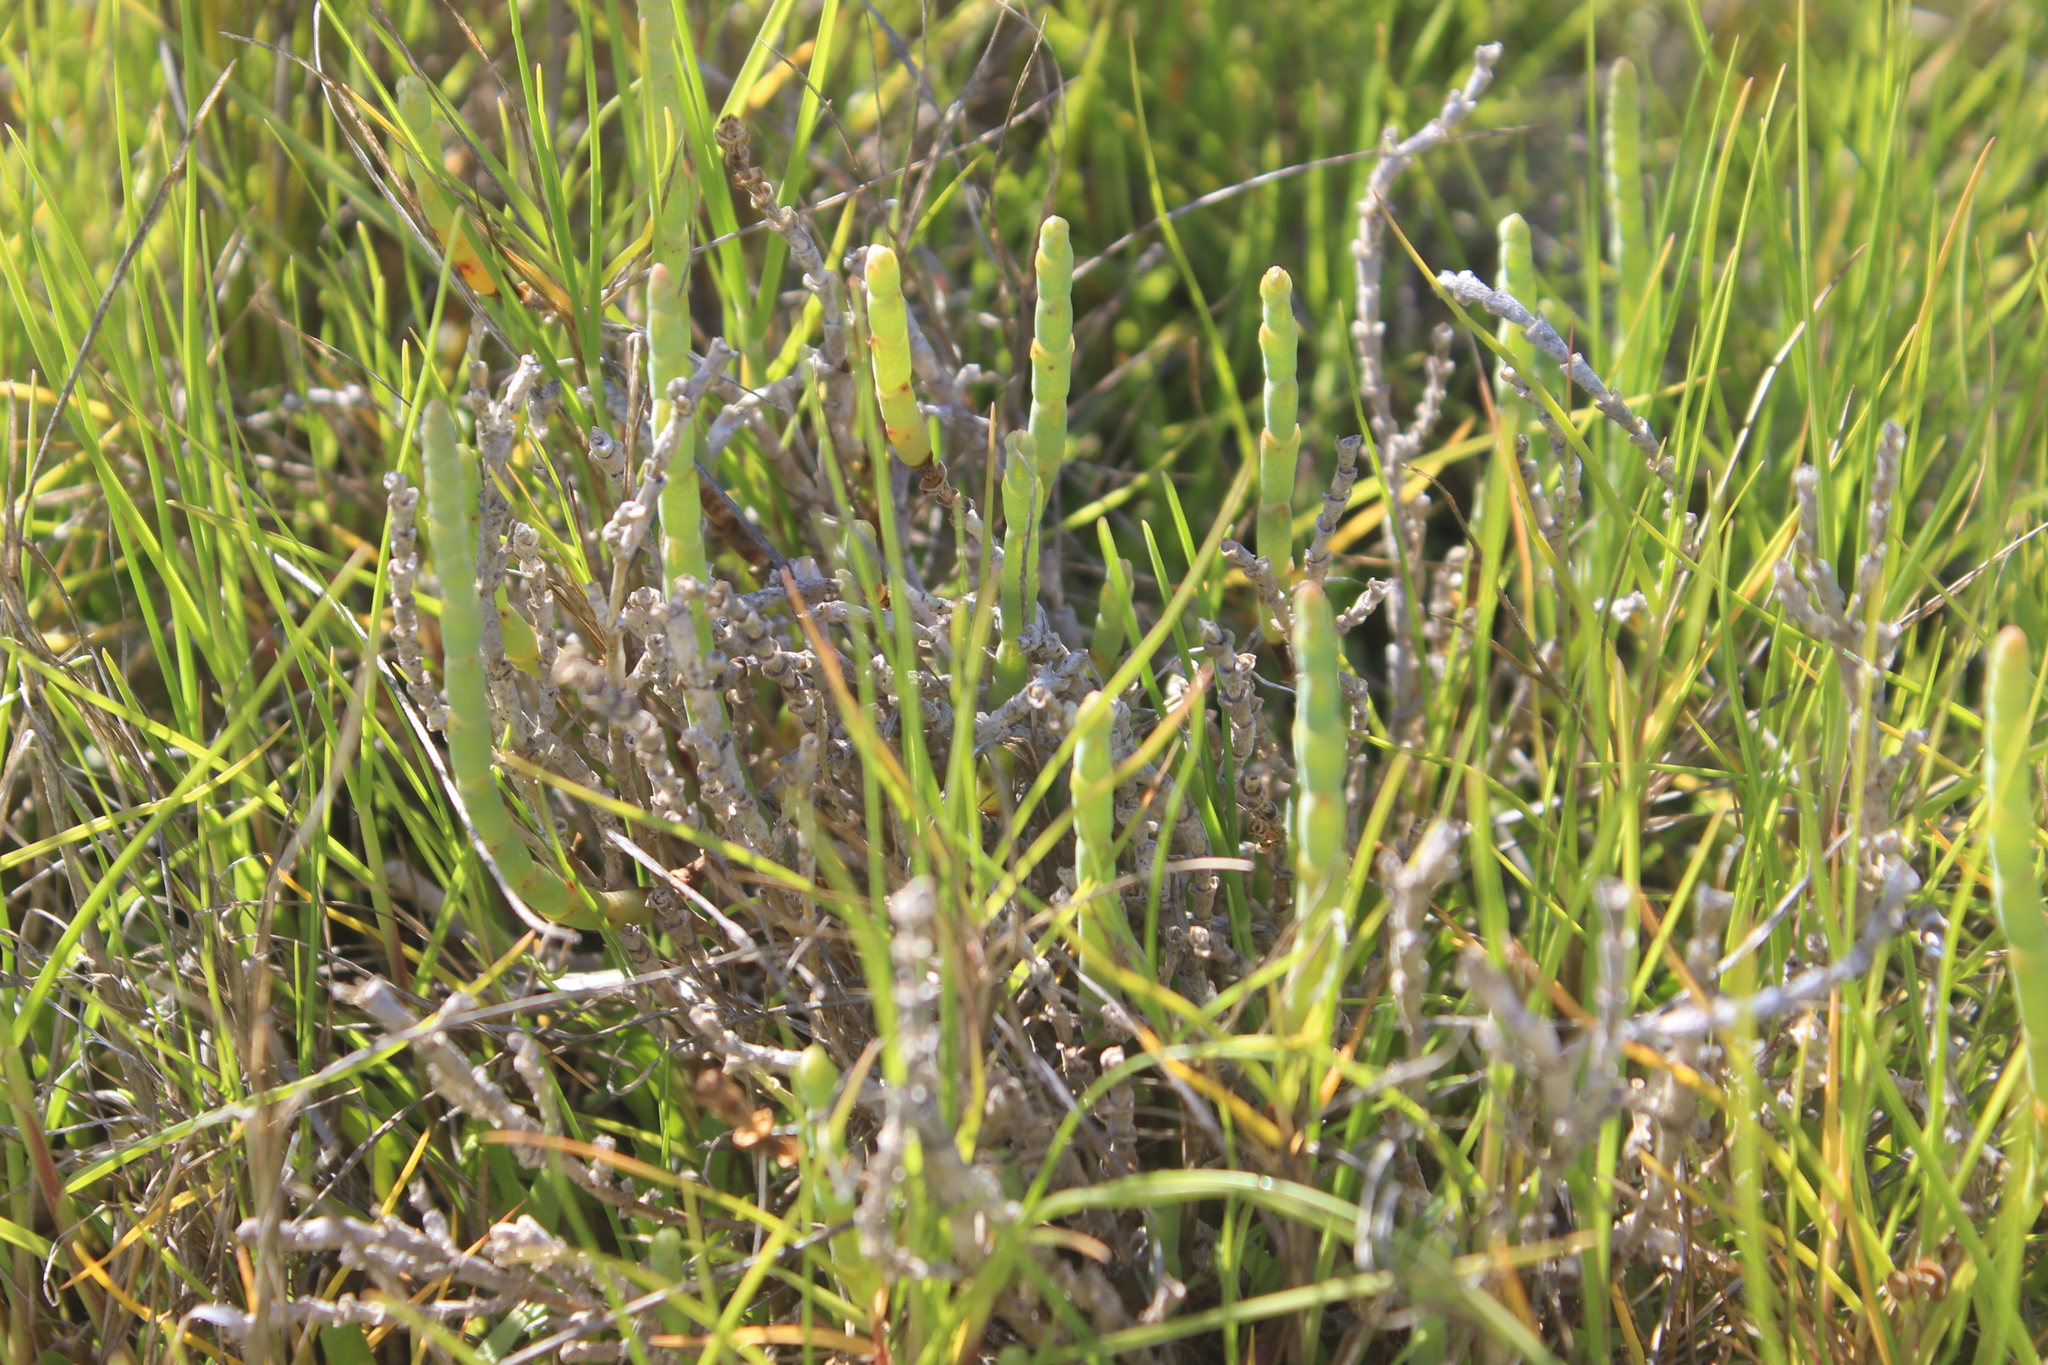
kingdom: Plantae
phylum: Tracheophyta
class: Magnoliopsida
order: Caryophyllales
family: Amaranthaceae
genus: Salicornia
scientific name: Salicornia quinqueflora
